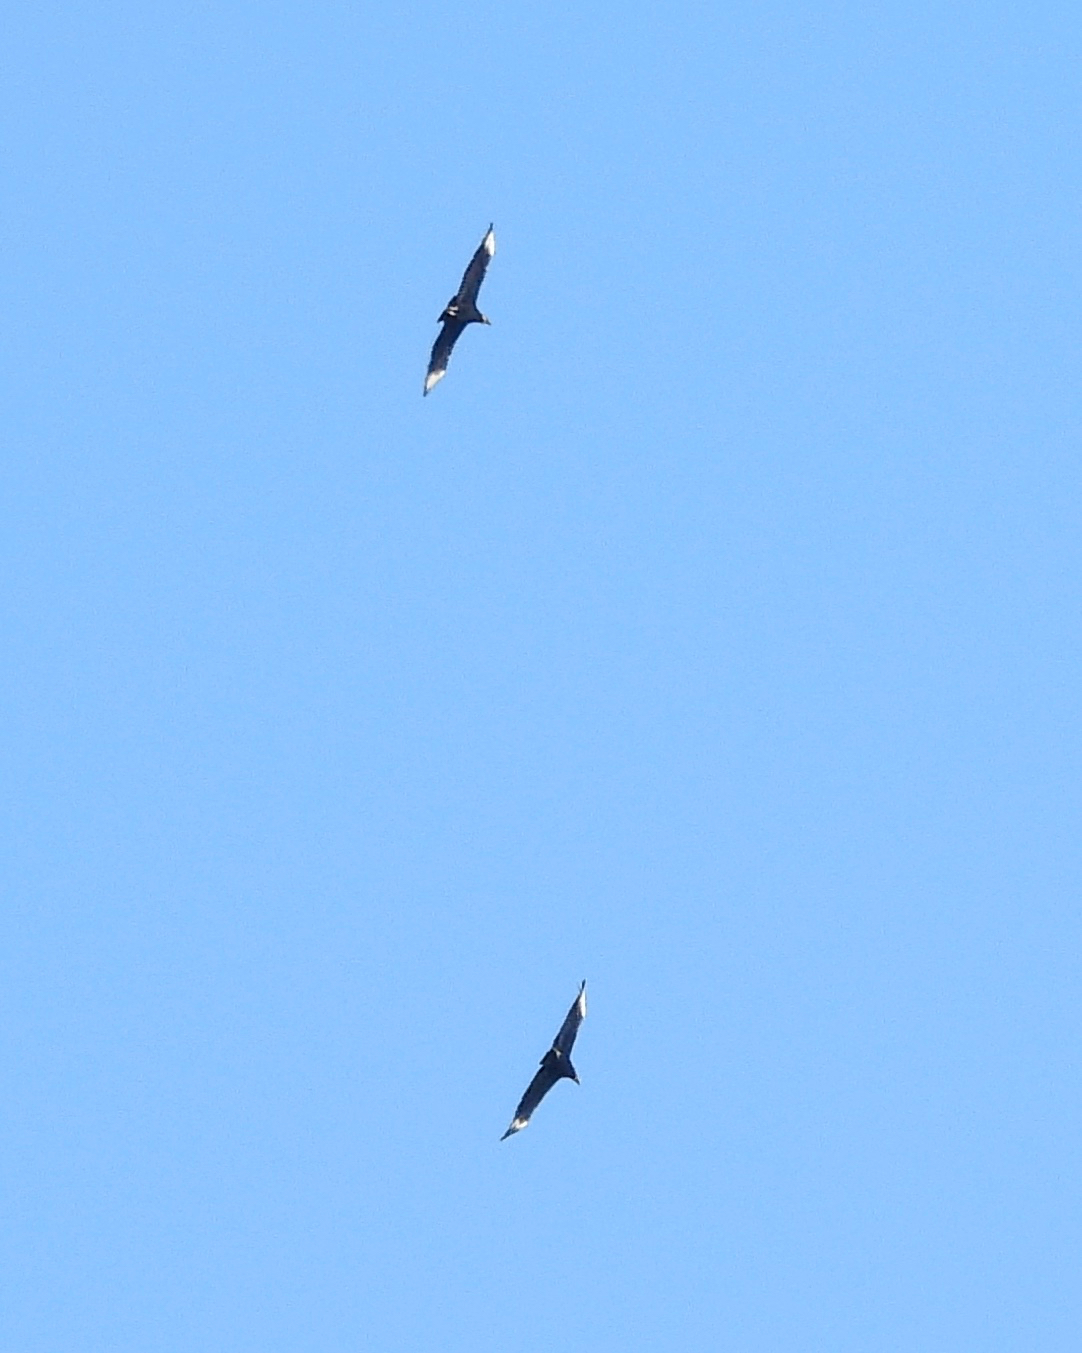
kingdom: Animalia
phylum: Chordata
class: Aves
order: Accipitriformes
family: Cathartidae
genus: Coragyps
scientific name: Coragyps atratus
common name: Black vulture
